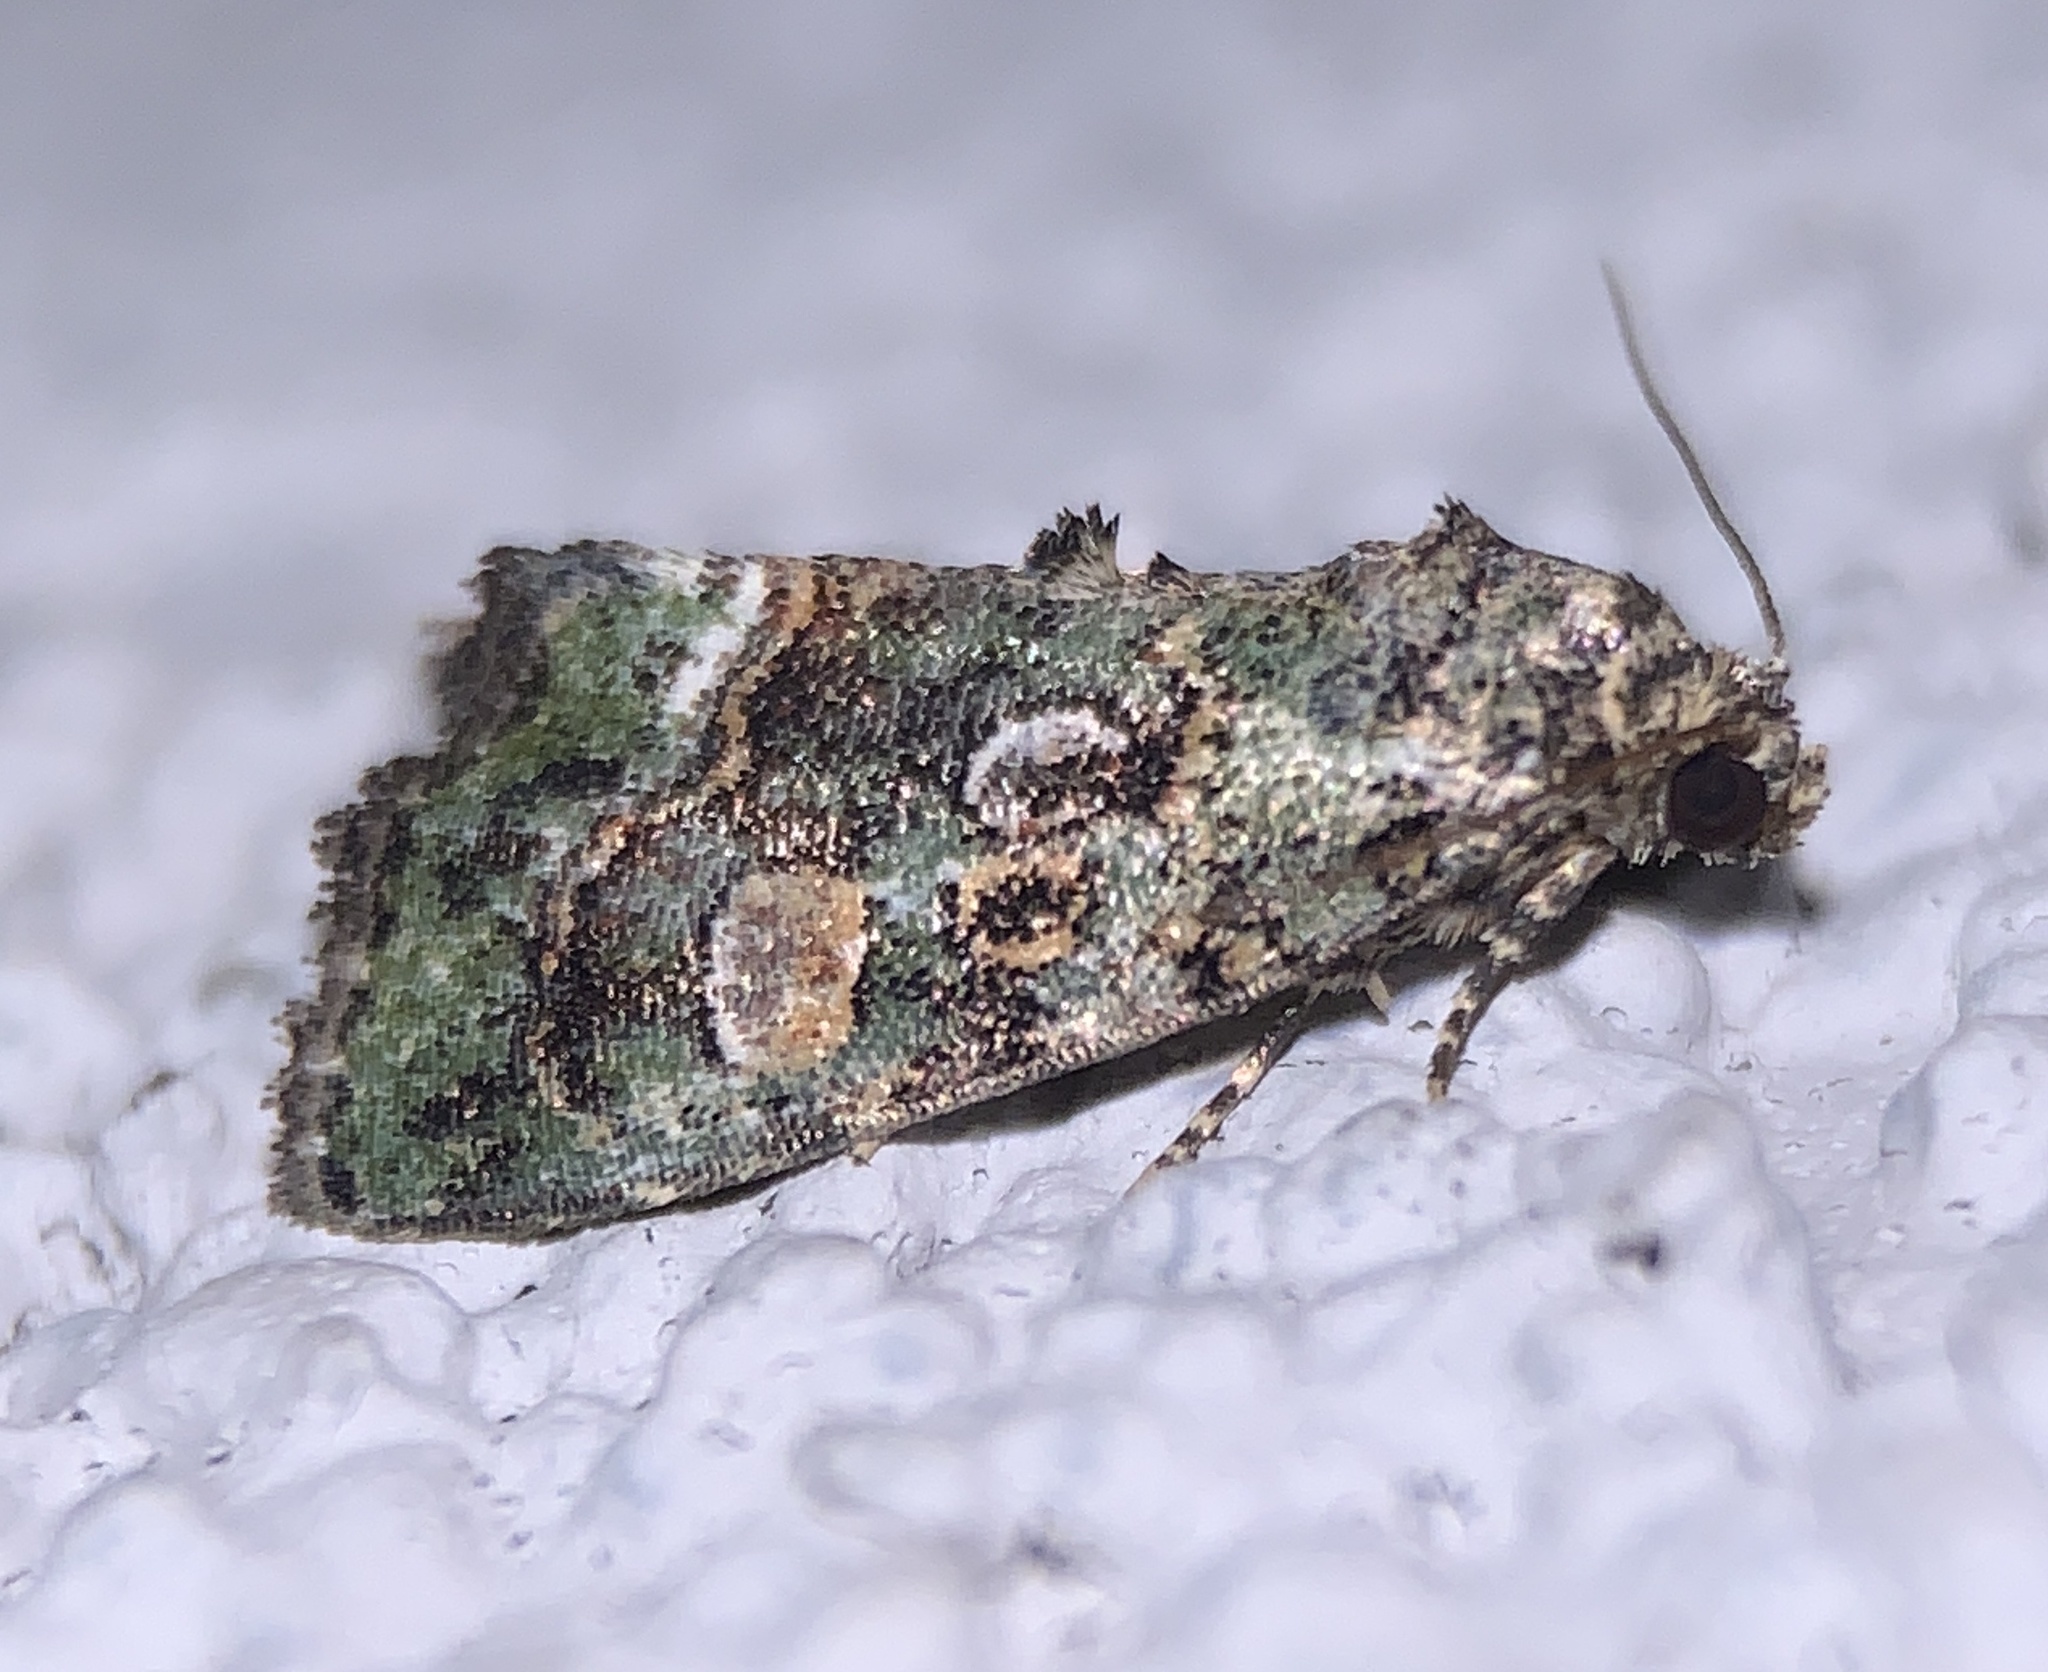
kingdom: Animalia
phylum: Arthropoda
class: Insecta
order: Lepidoptera
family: Noctuidae
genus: Lithacodia
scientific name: Lithacodia musta
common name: Small mossy glyph
